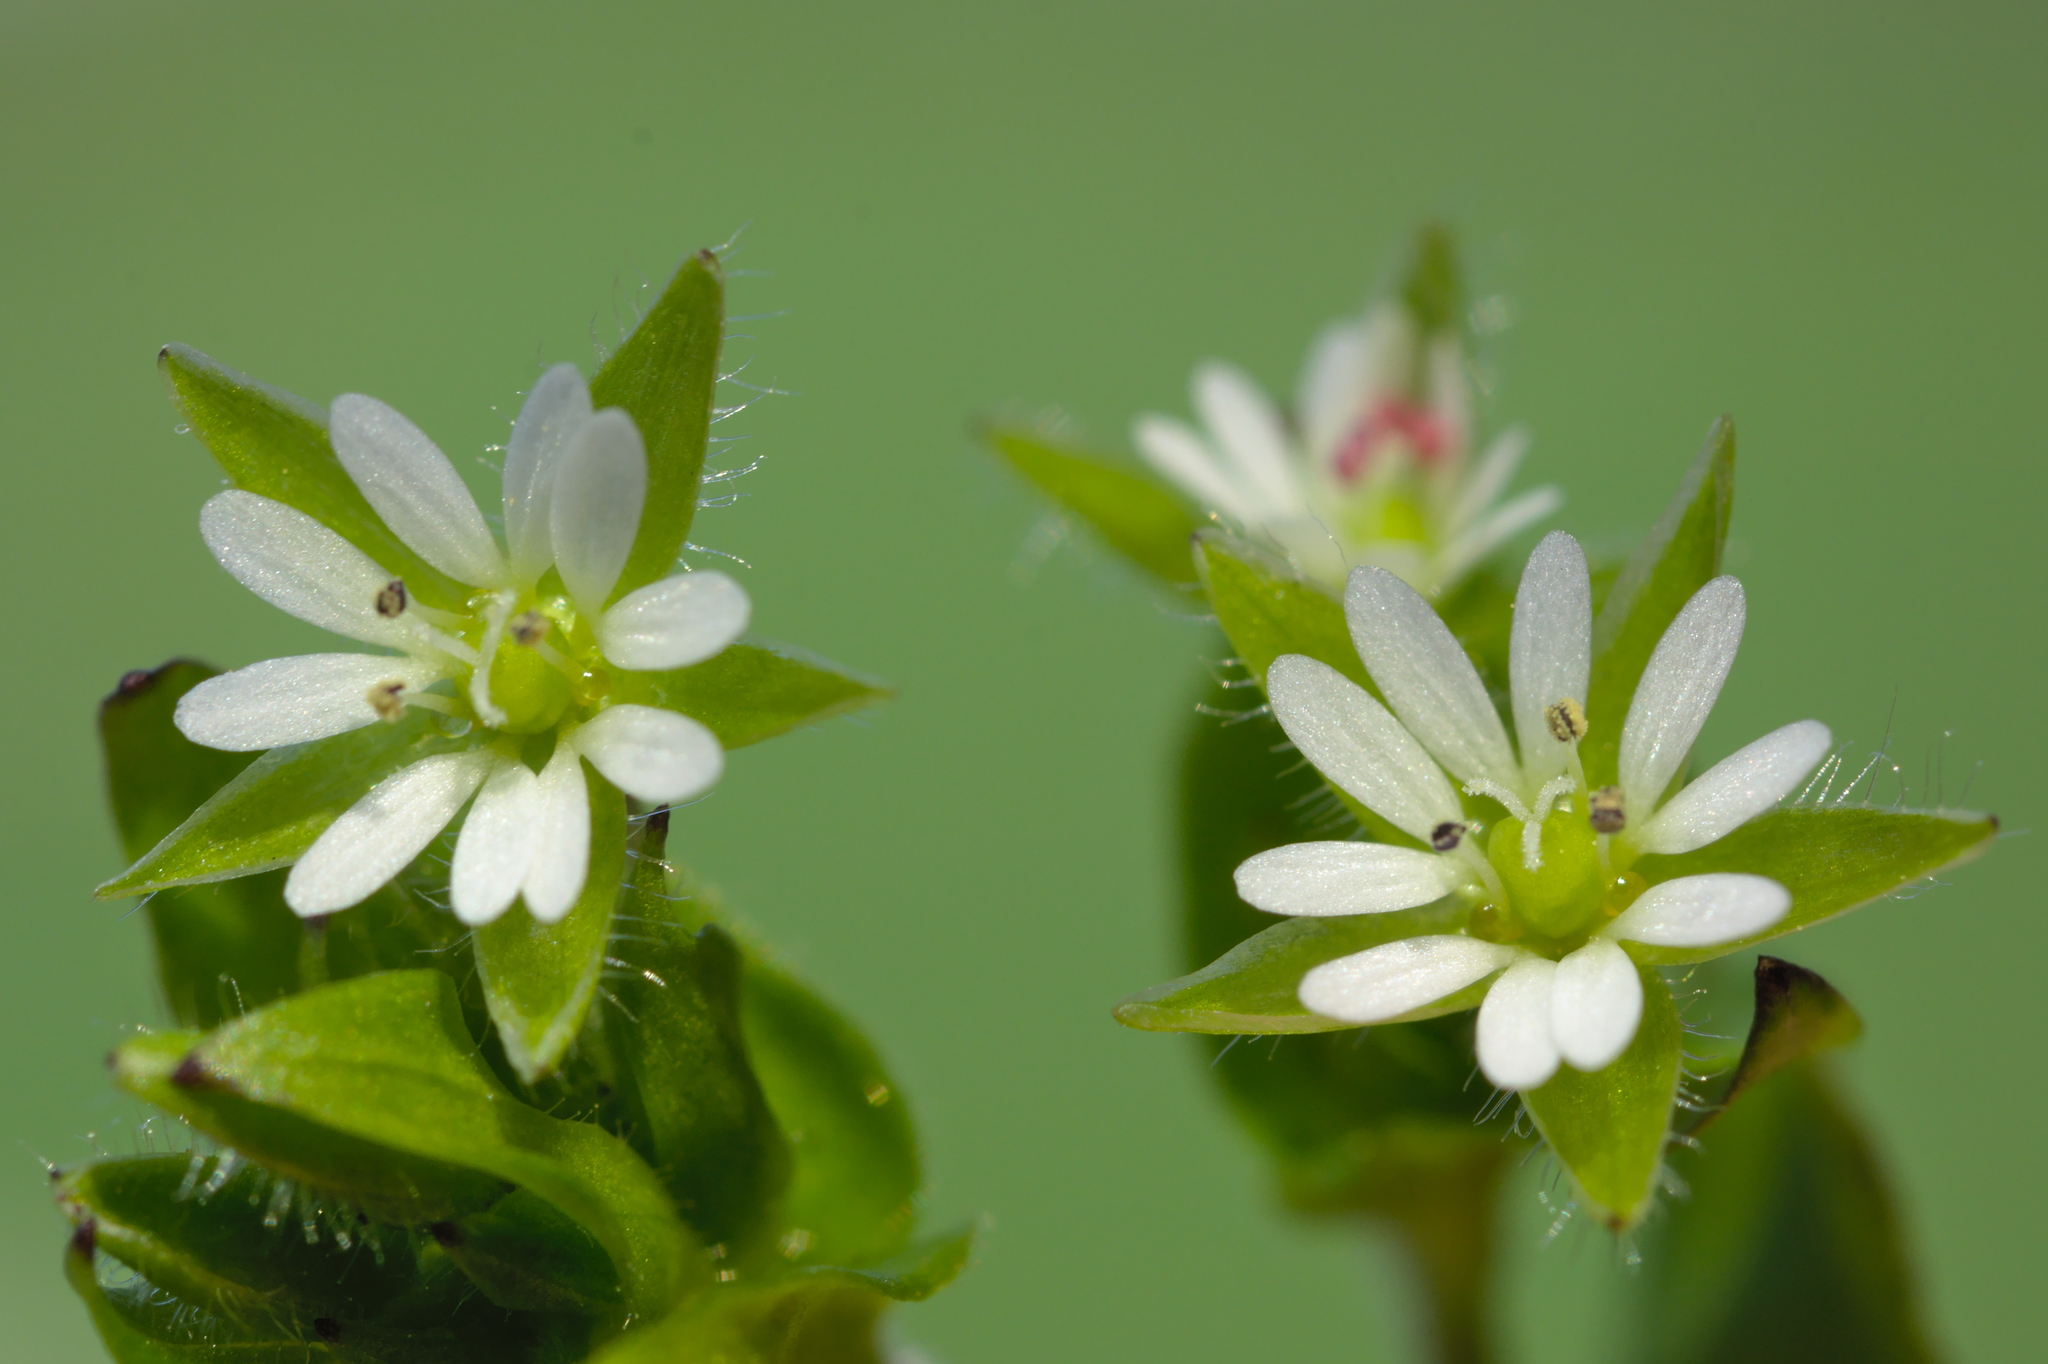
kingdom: Plantae
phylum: Tracheophyta
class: Magnoliopsida
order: Caryophyllales
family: Caryophyllaceae
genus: Stellaria
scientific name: Stellaria media
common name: Common chickweed
